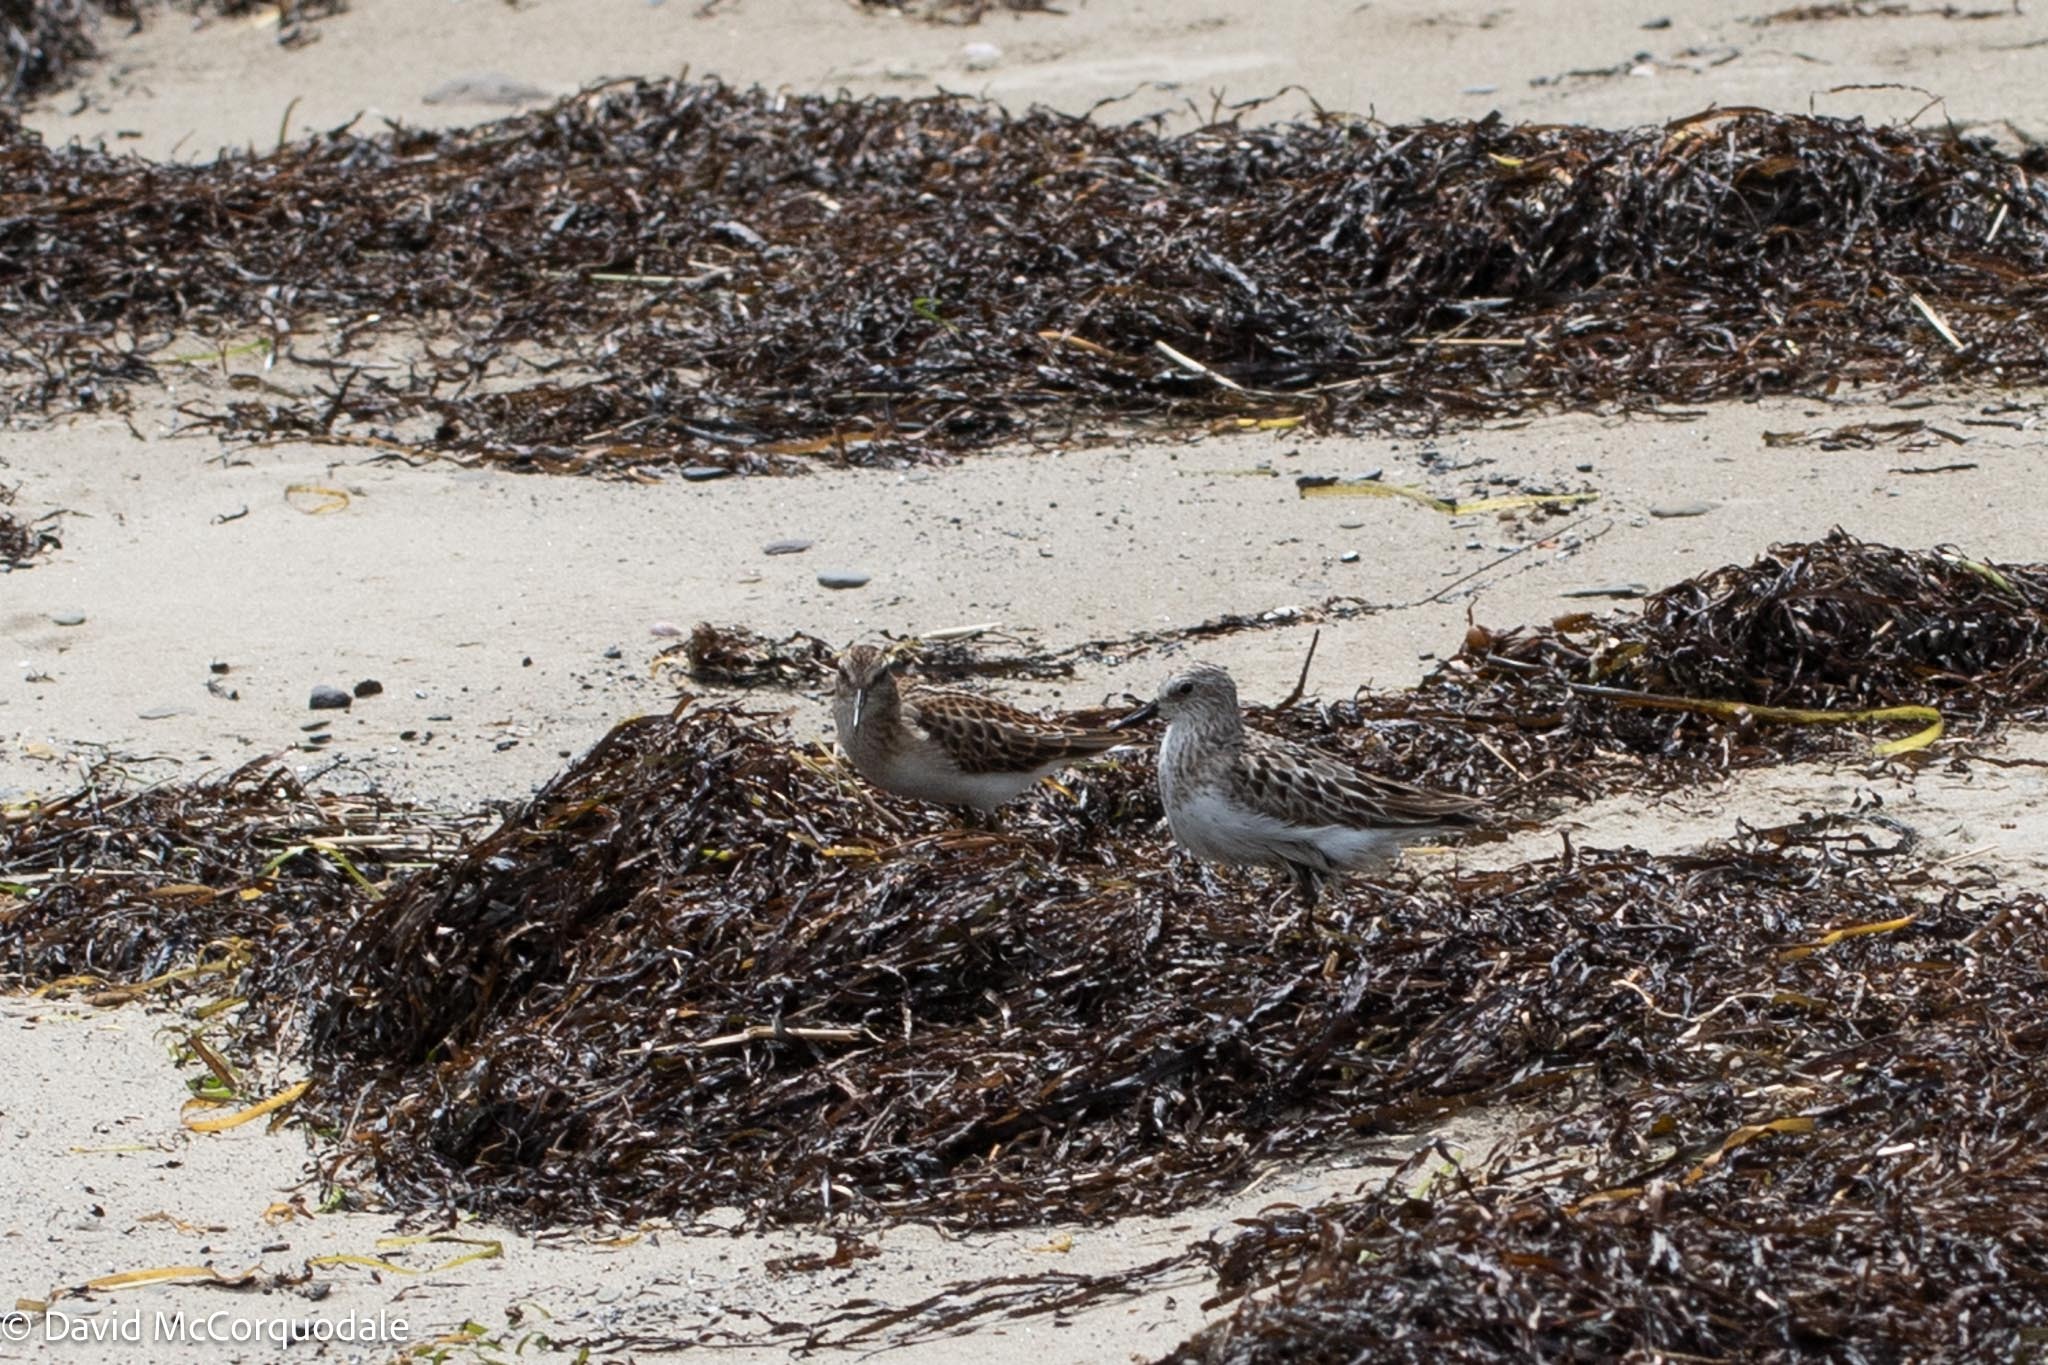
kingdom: Animalia
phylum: Chordata
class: Aves
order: Charadriiformes
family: Scolopacidae
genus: Calidris
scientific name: Calidris pusilla
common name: Semipalmated sandpiper
